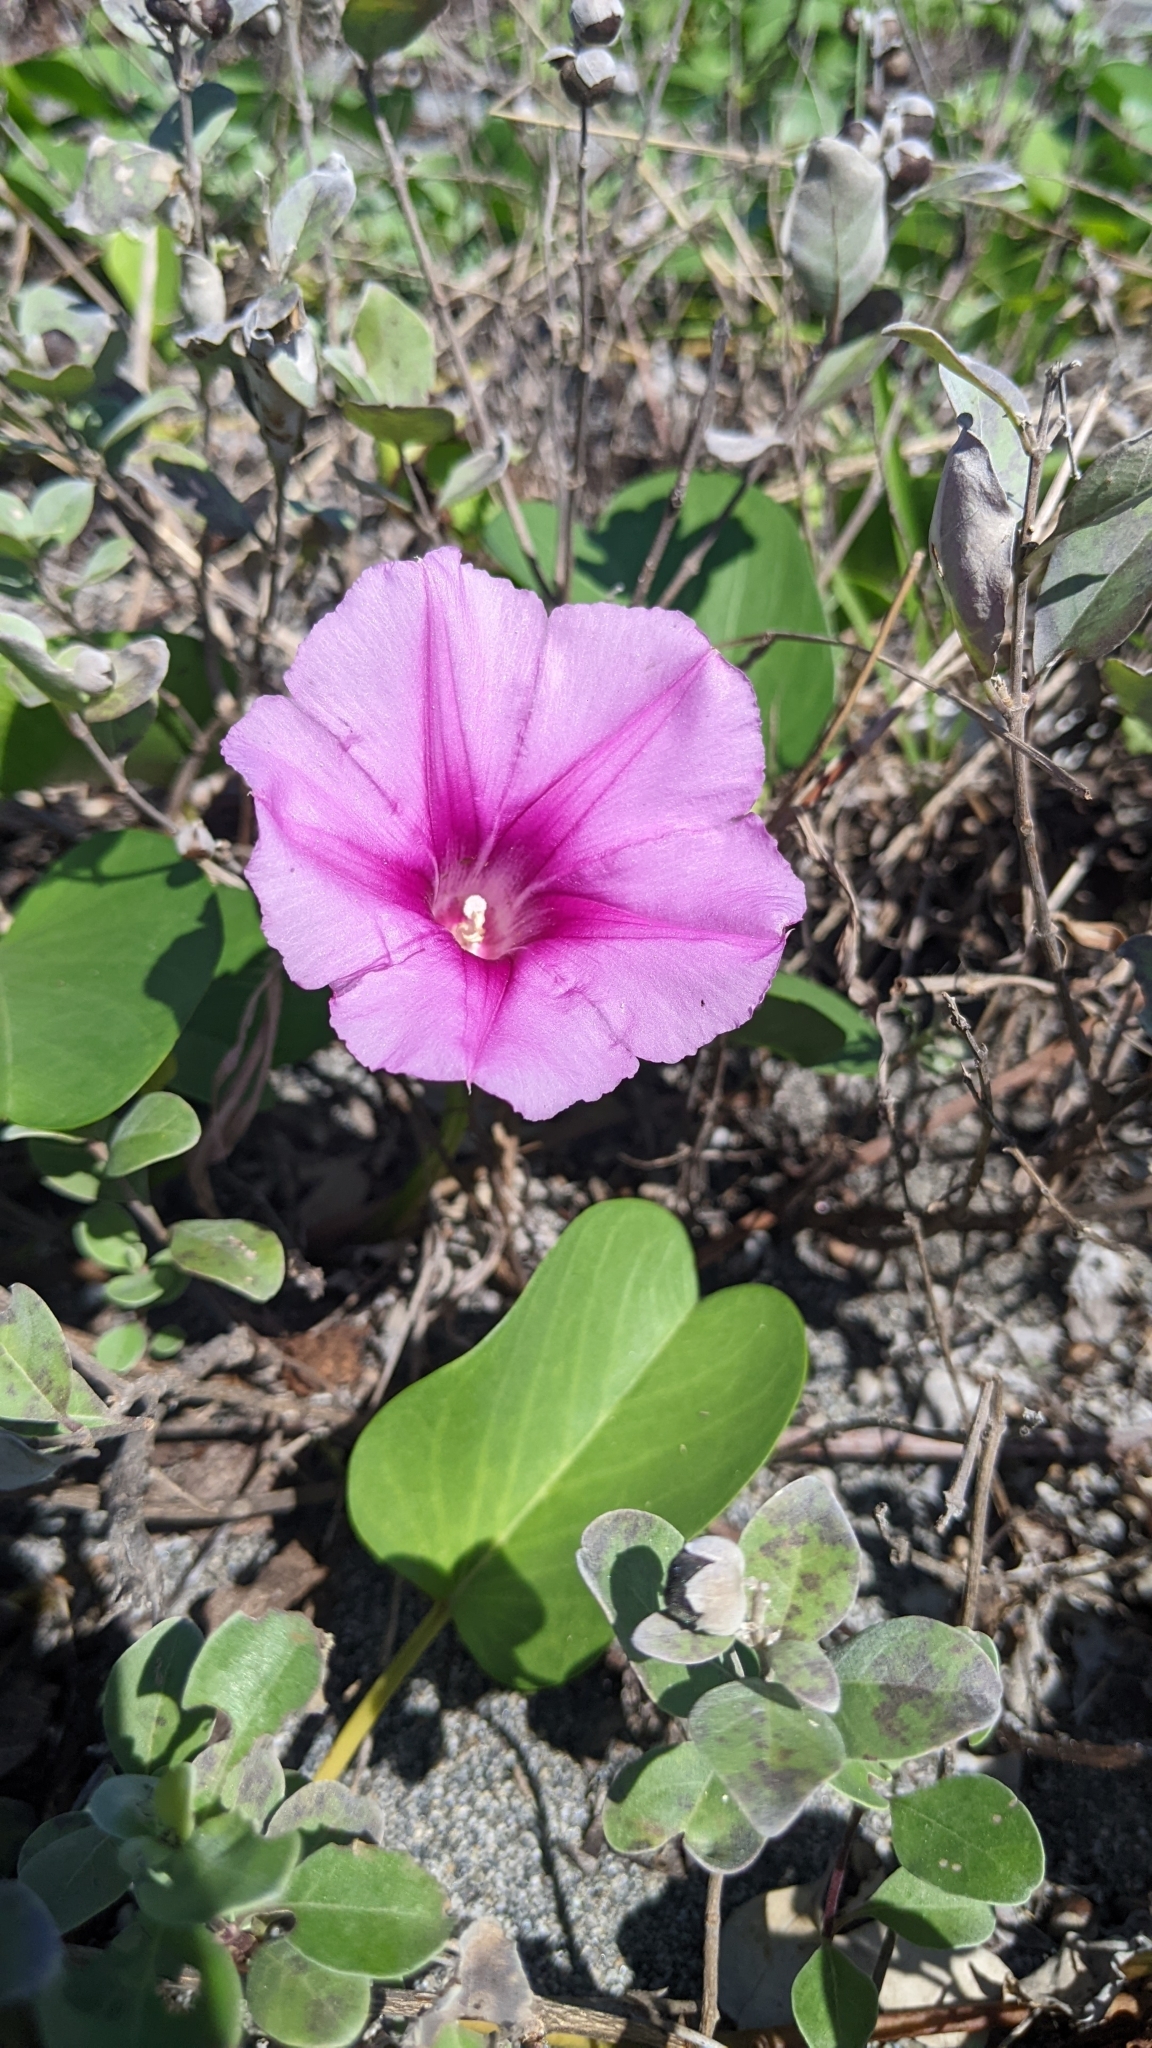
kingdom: Plantae
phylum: Tracheophyta
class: Magnoliopsida
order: Solanales
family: Convolvulaceae
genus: Ipomoea
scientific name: Ipomoea pes-caprae
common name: Beach morning glory
